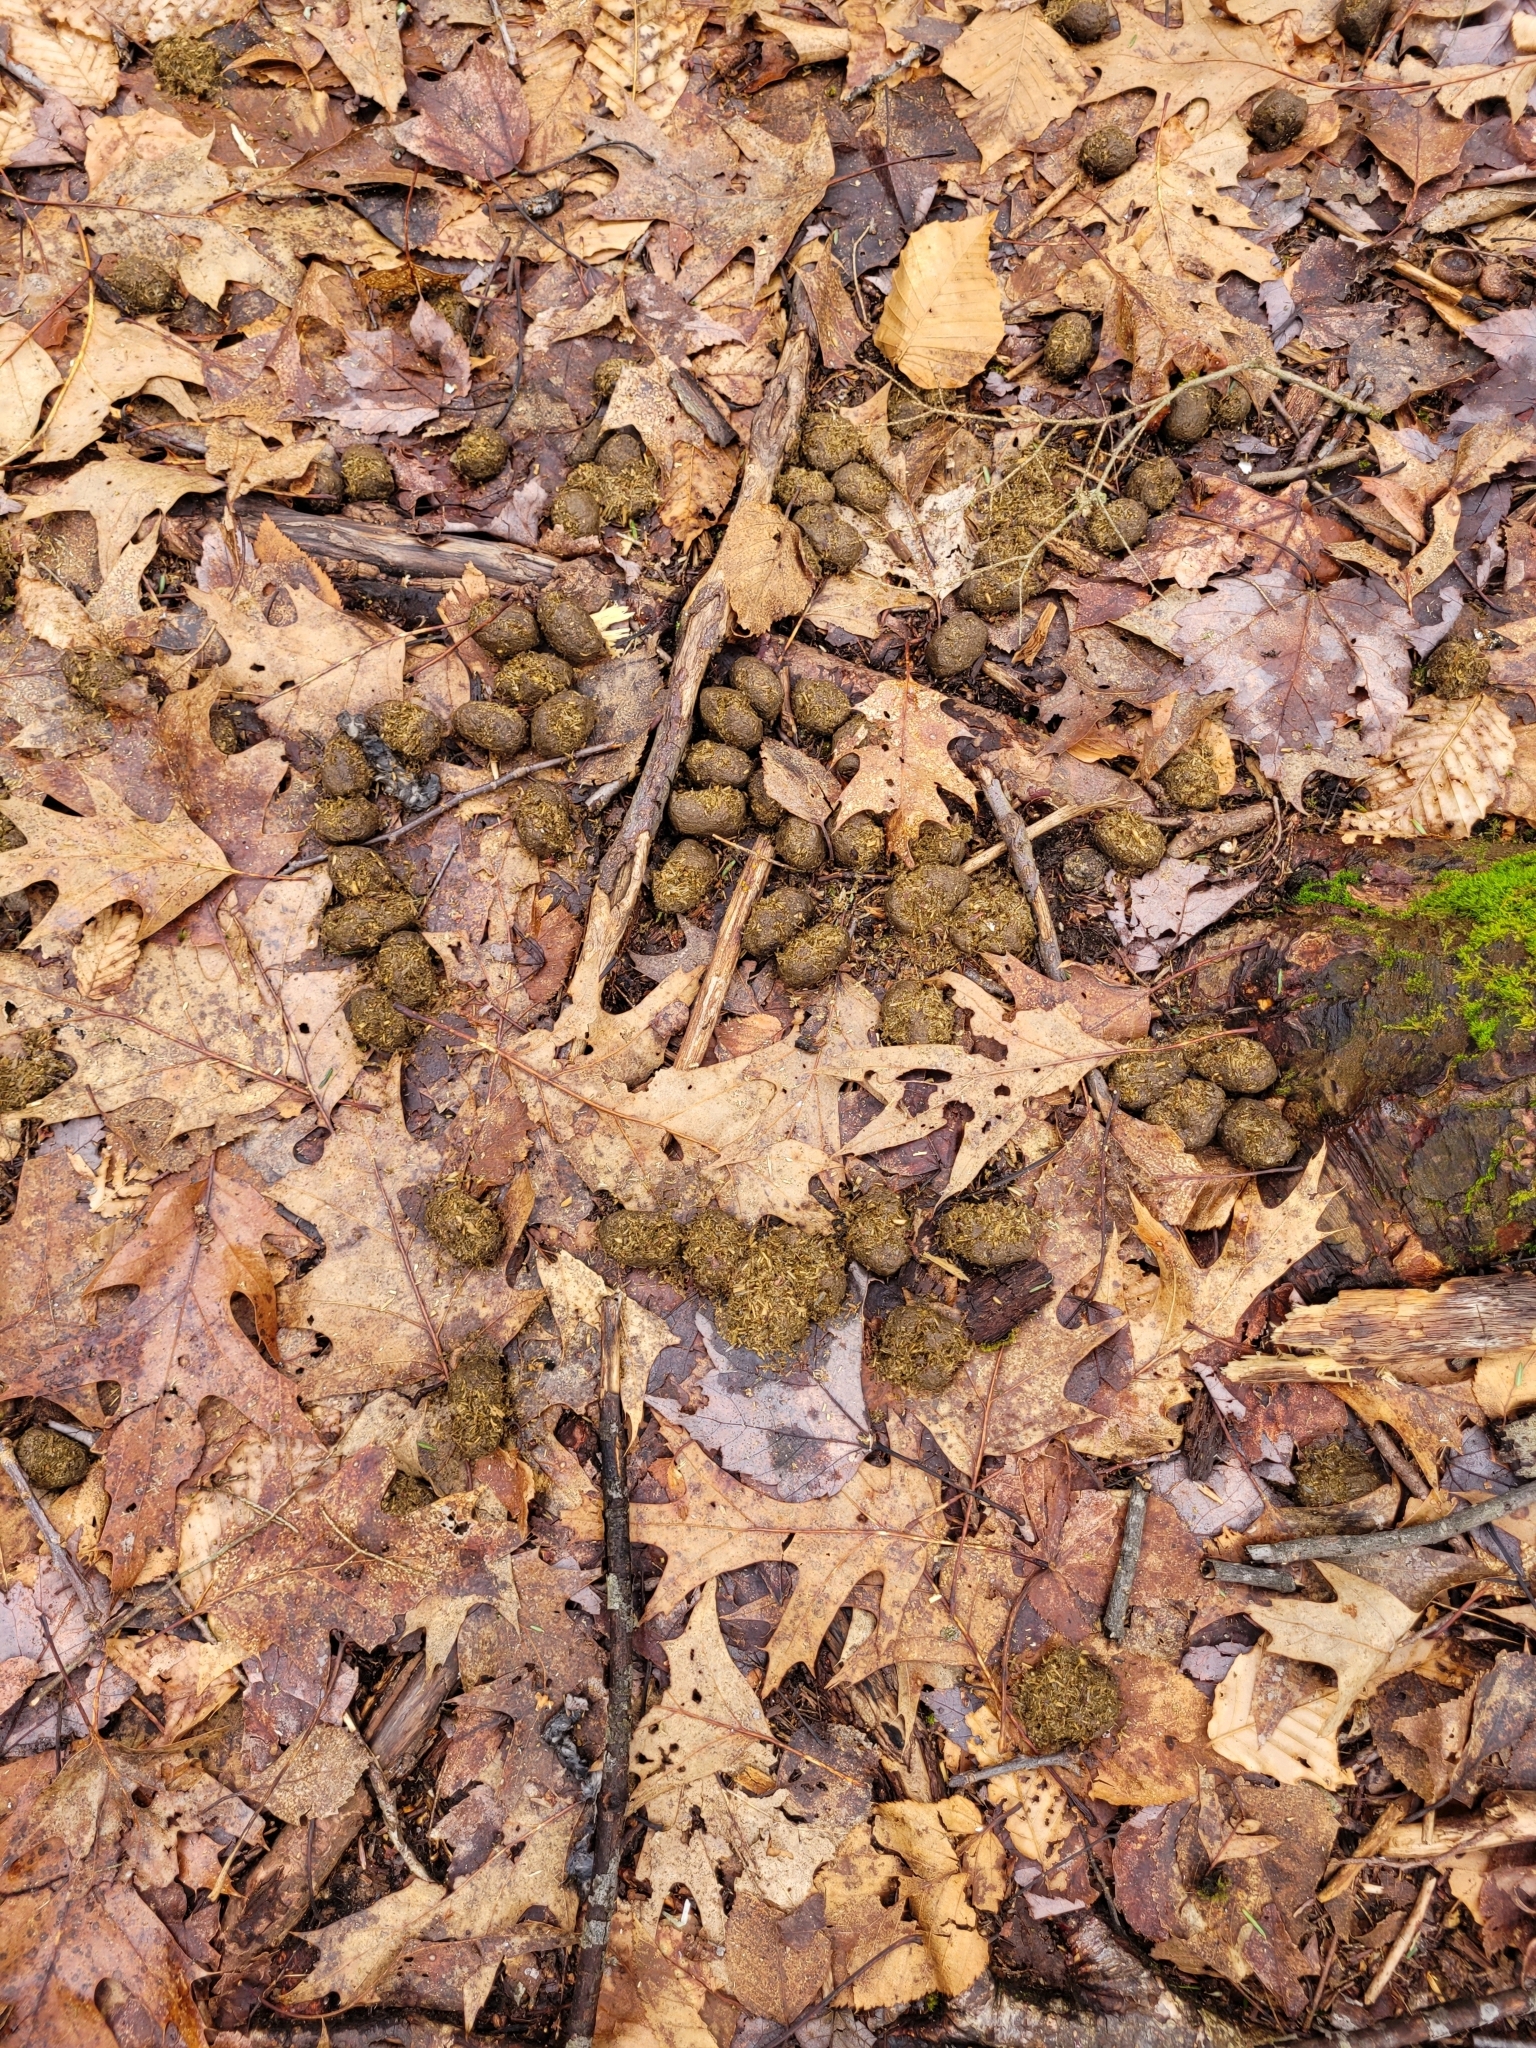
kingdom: Animalia
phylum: Chordata
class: Mammalia
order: Artiodactyla
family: Cervidae
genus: Alces
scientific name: Alces alces
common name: Moose
